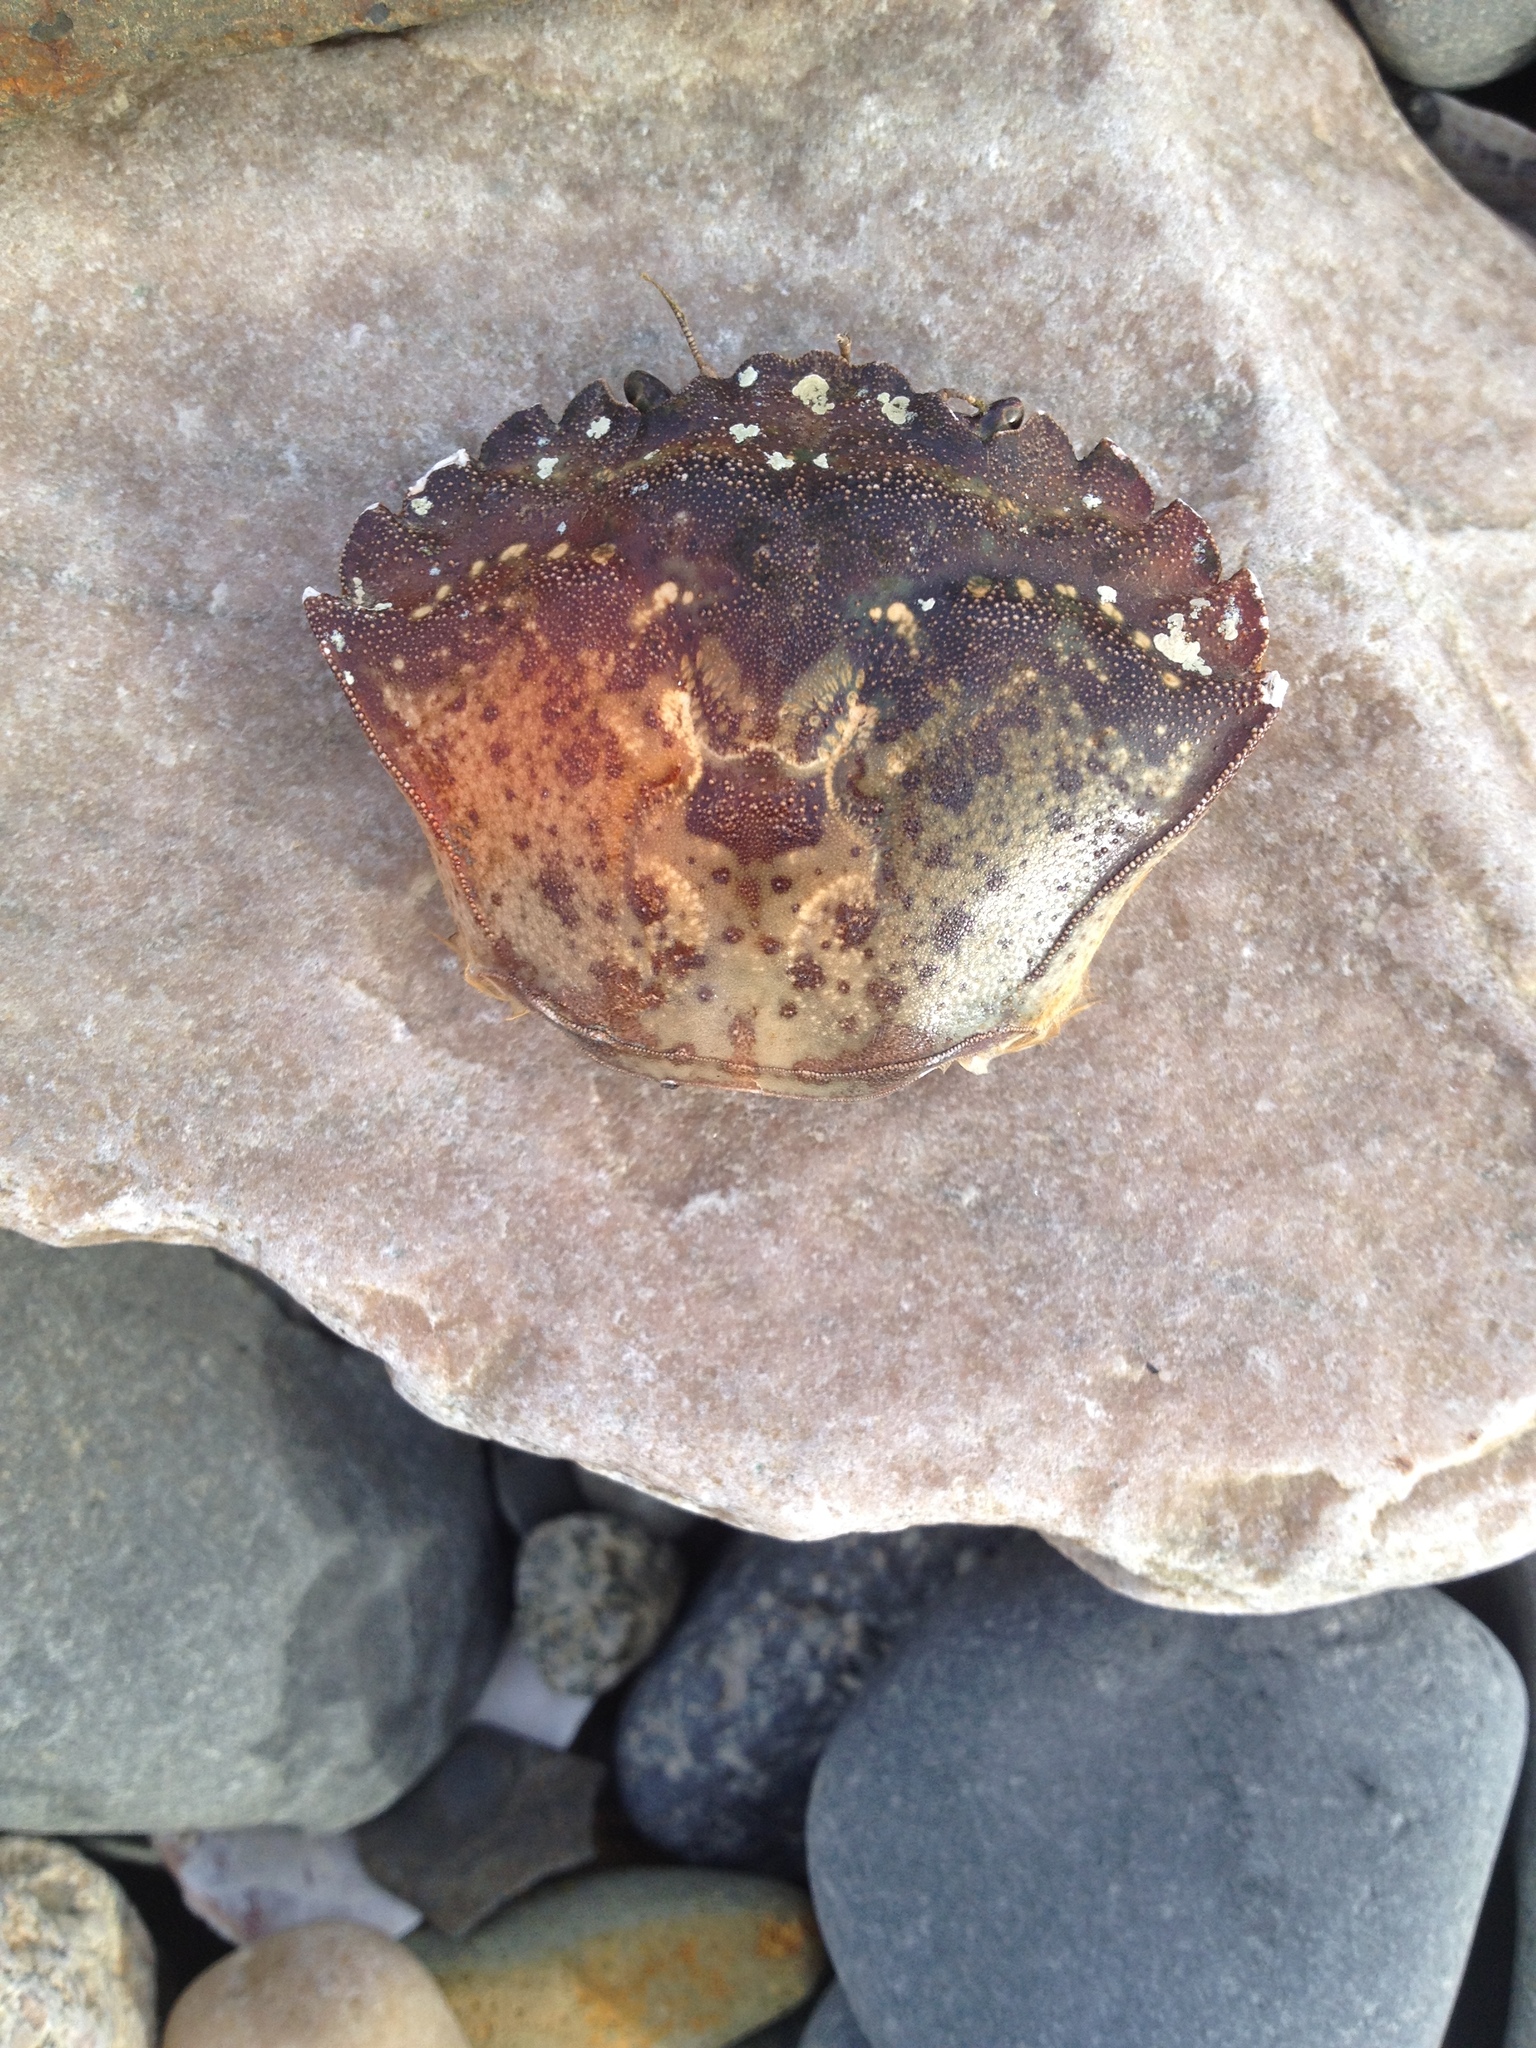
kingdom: Animalia
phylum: Arthropoda
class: Malacostraca
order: Decapoda
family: Carcinidae
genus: Carcinus
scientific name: Carcinus maenas
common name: European green crab
